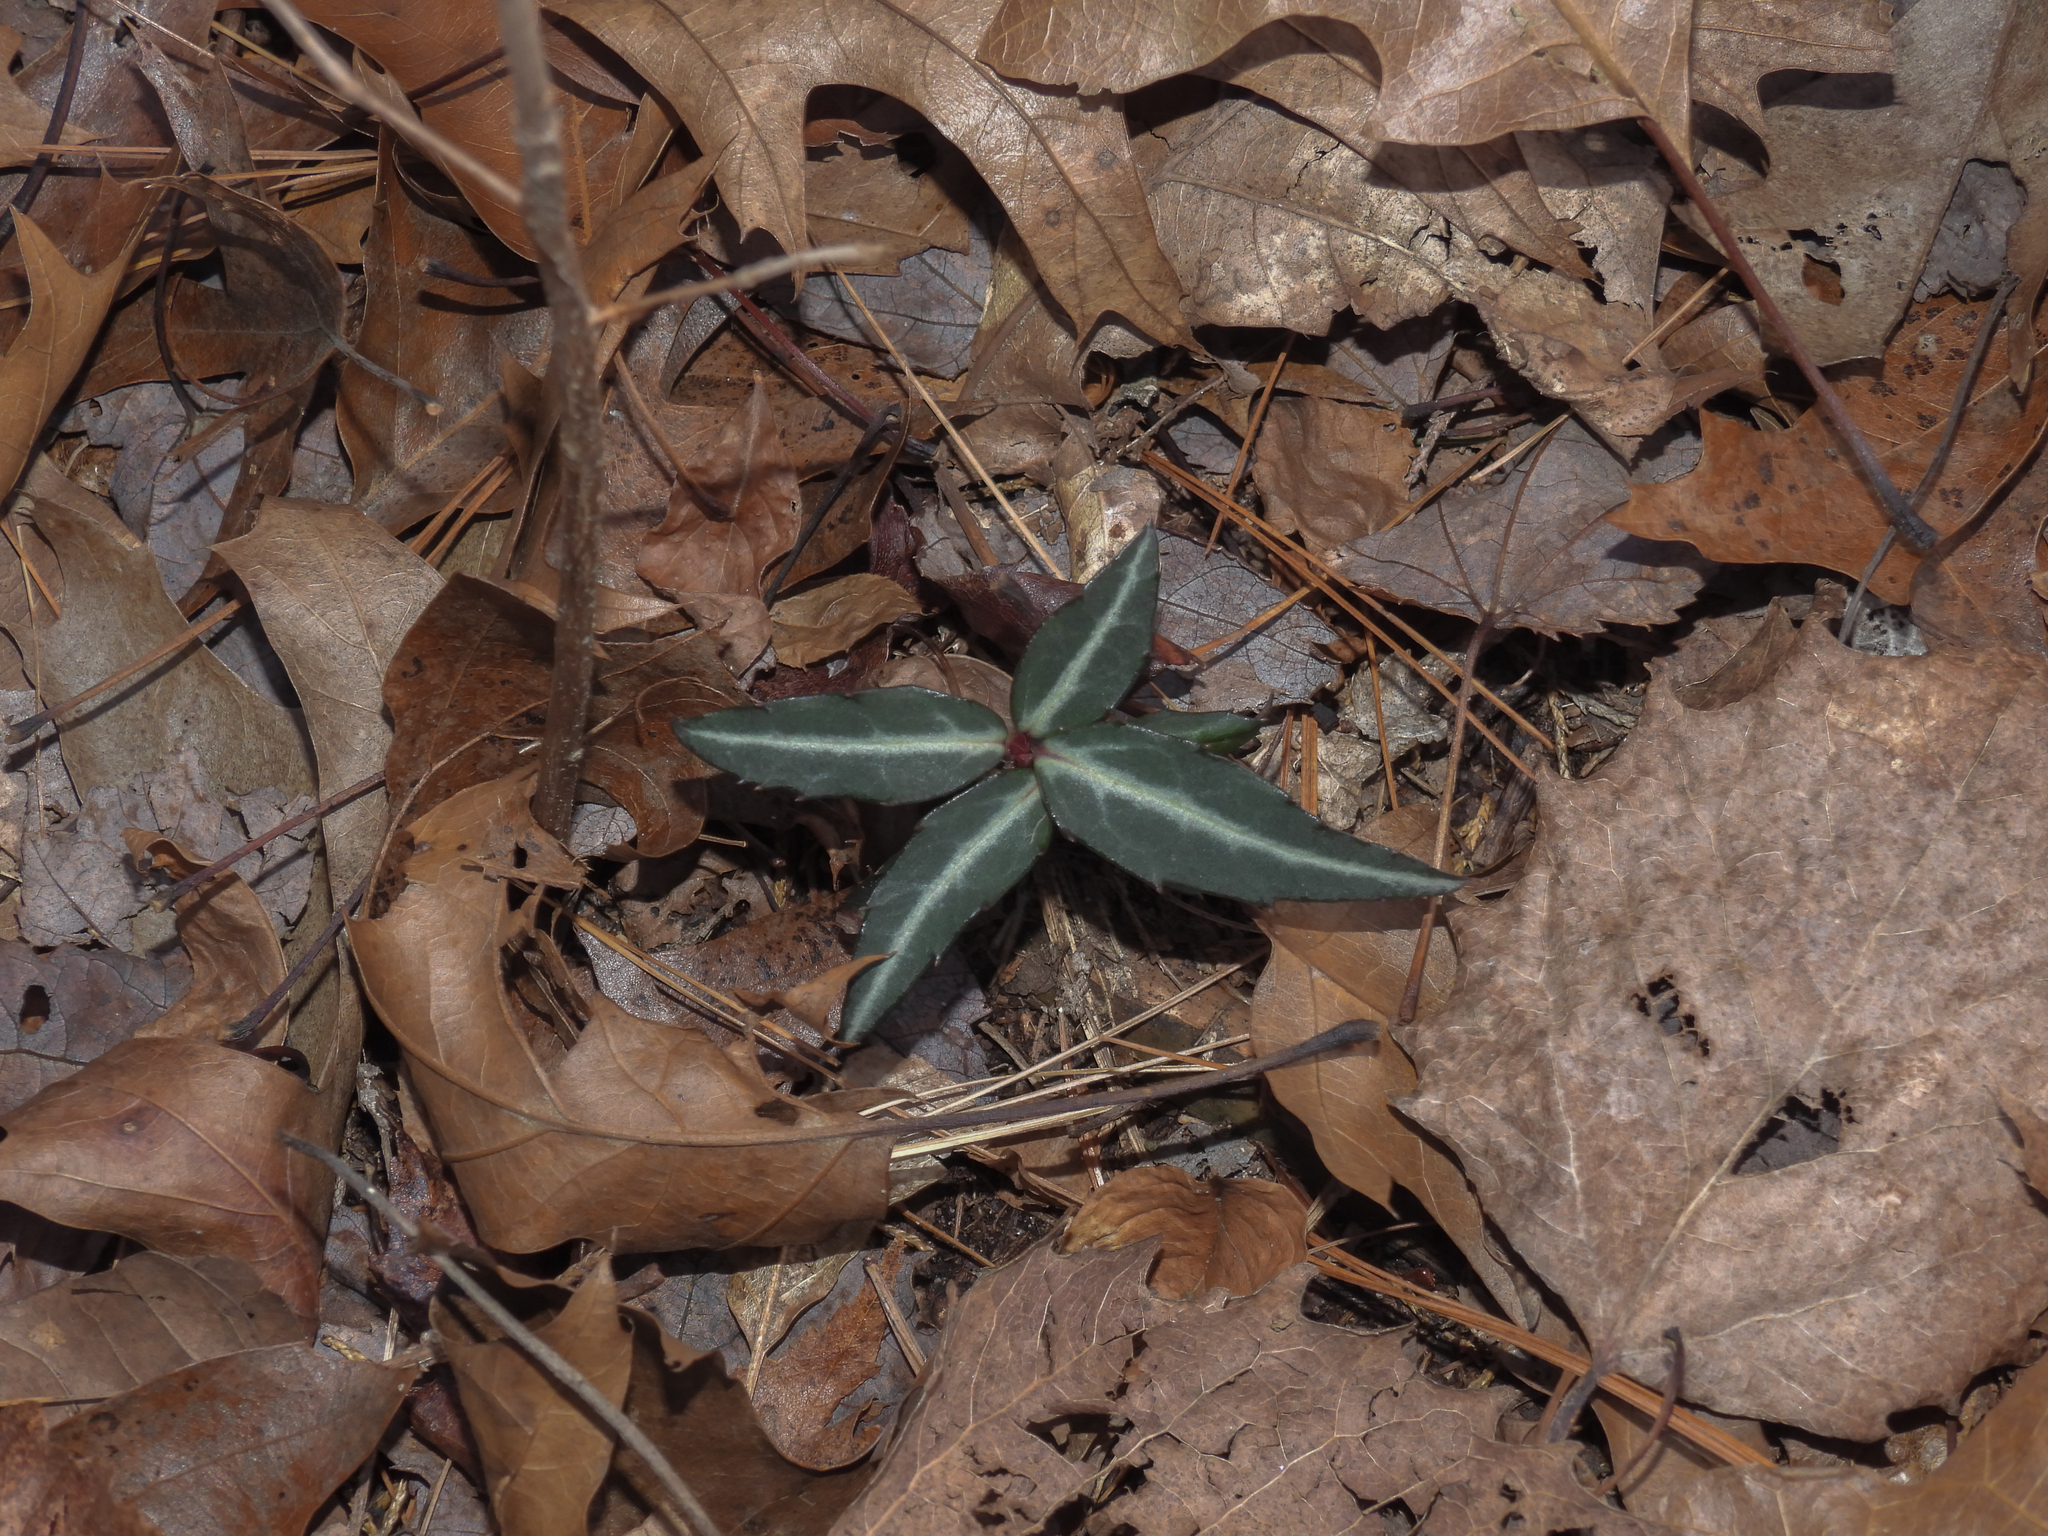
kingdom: Plantae
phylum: Tracheophyta
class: Magnoliopsida
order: Ericales
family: Ericaceae
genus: Chimaphila
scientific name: Chimaphila maculata
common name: Spotted pipsissewa
